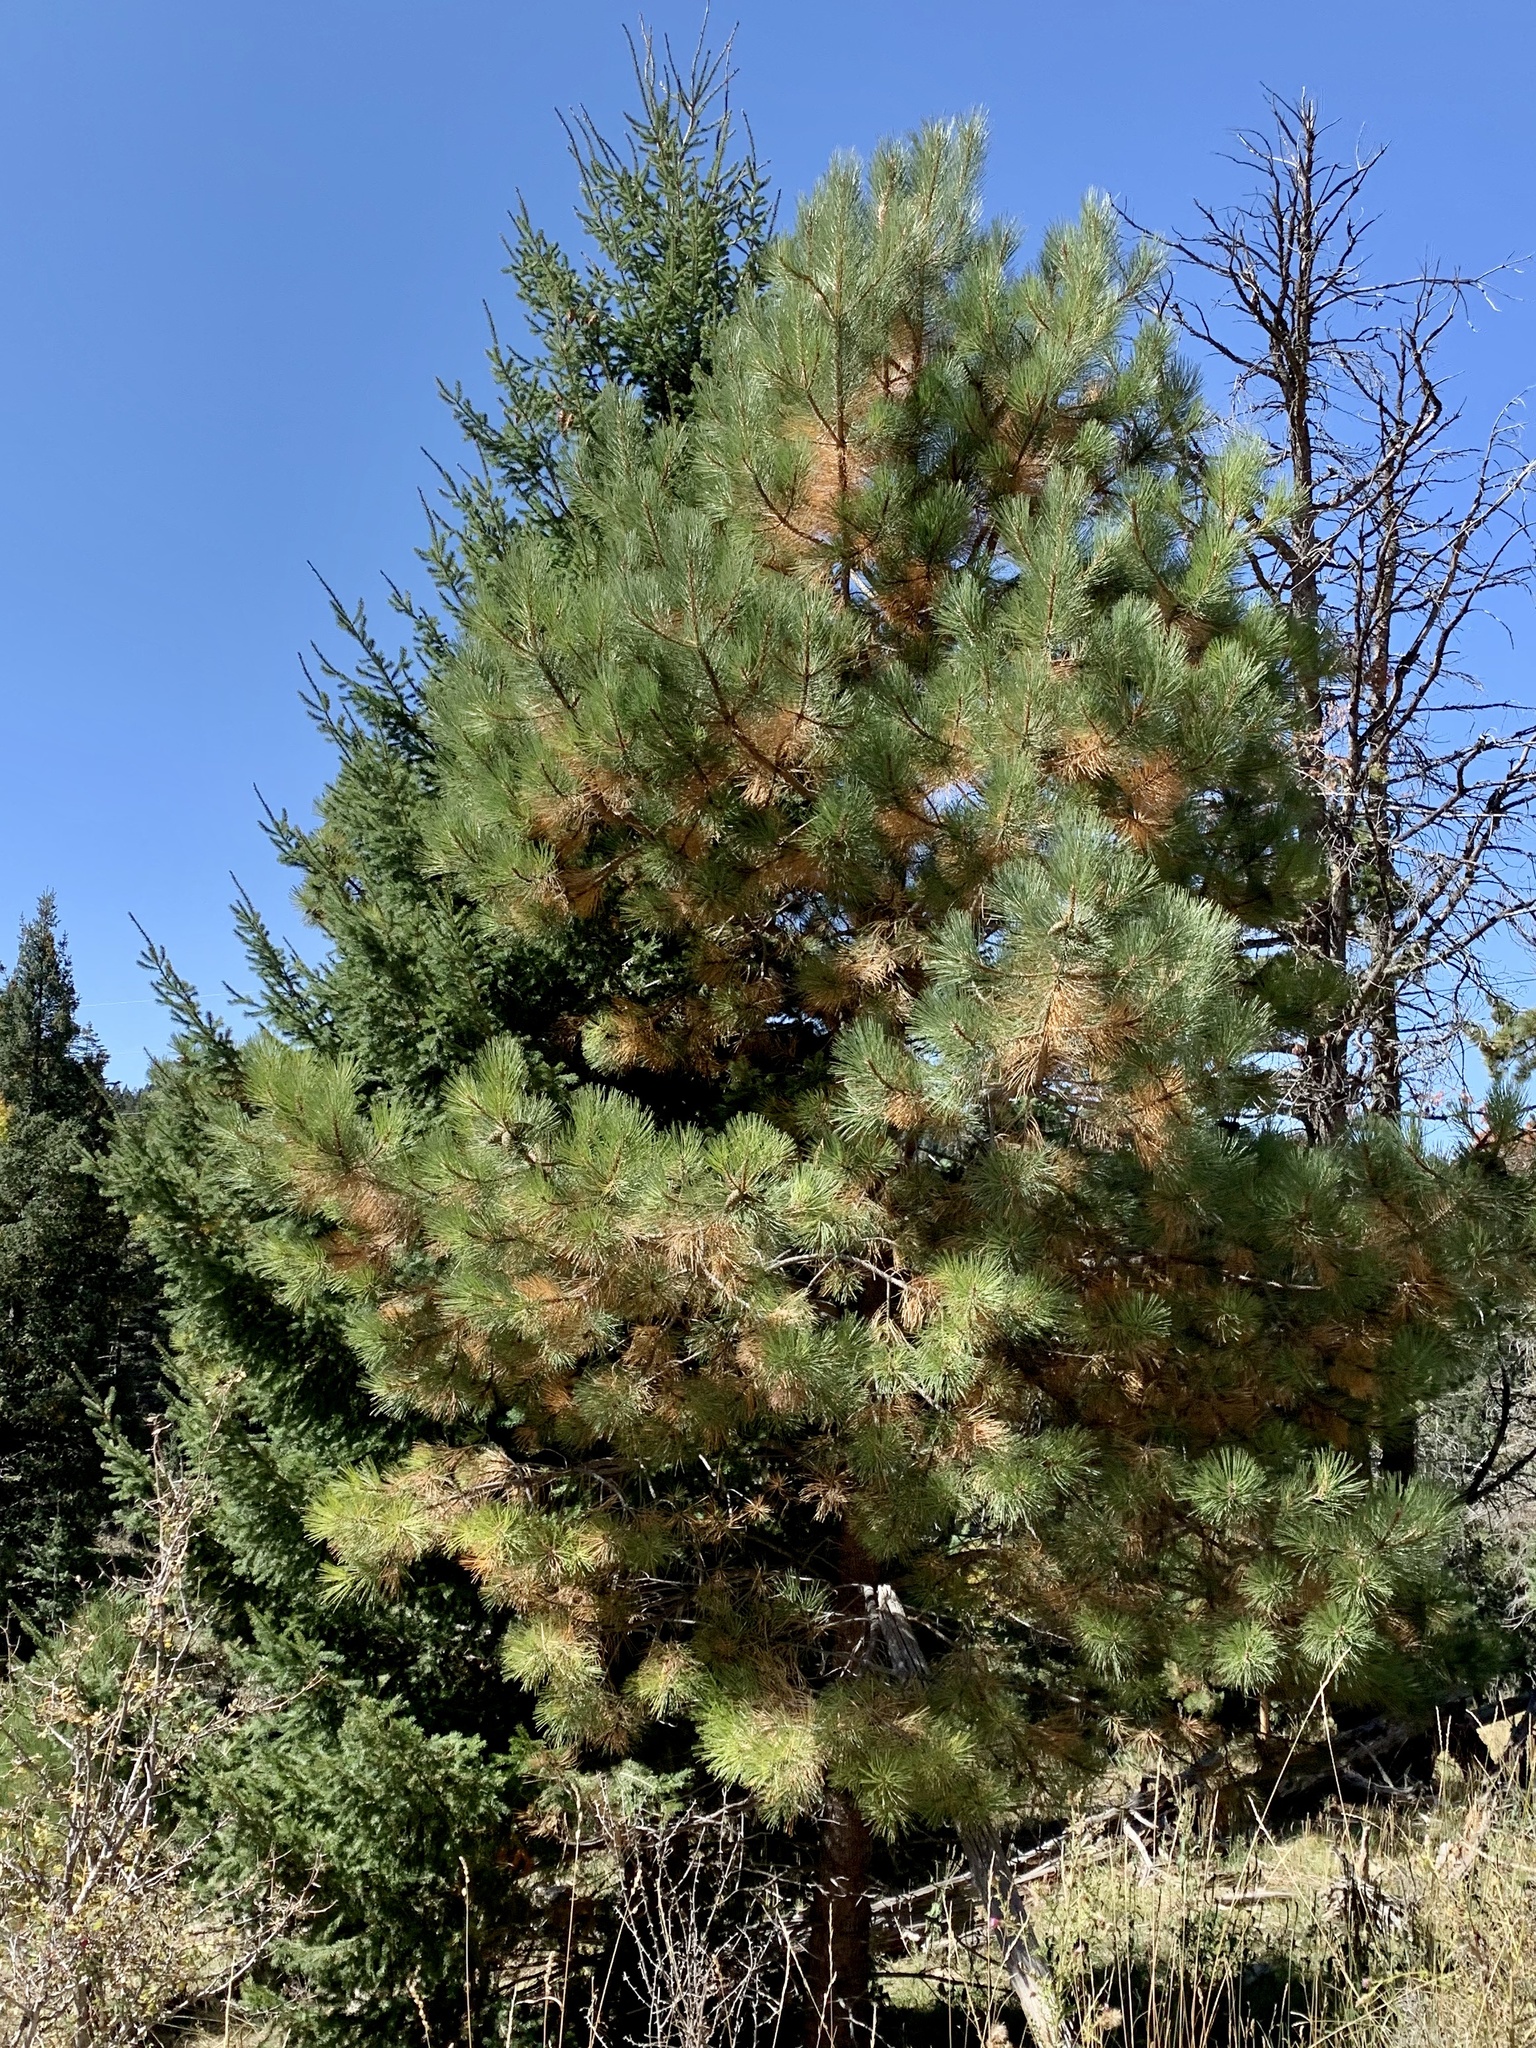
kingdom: Plantae
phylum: Tracheophyta
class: Pinopsida
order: Pinales
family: Pinaceae
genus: Pinus
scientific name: Pinus ponderosa
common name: Western yellow-pine
